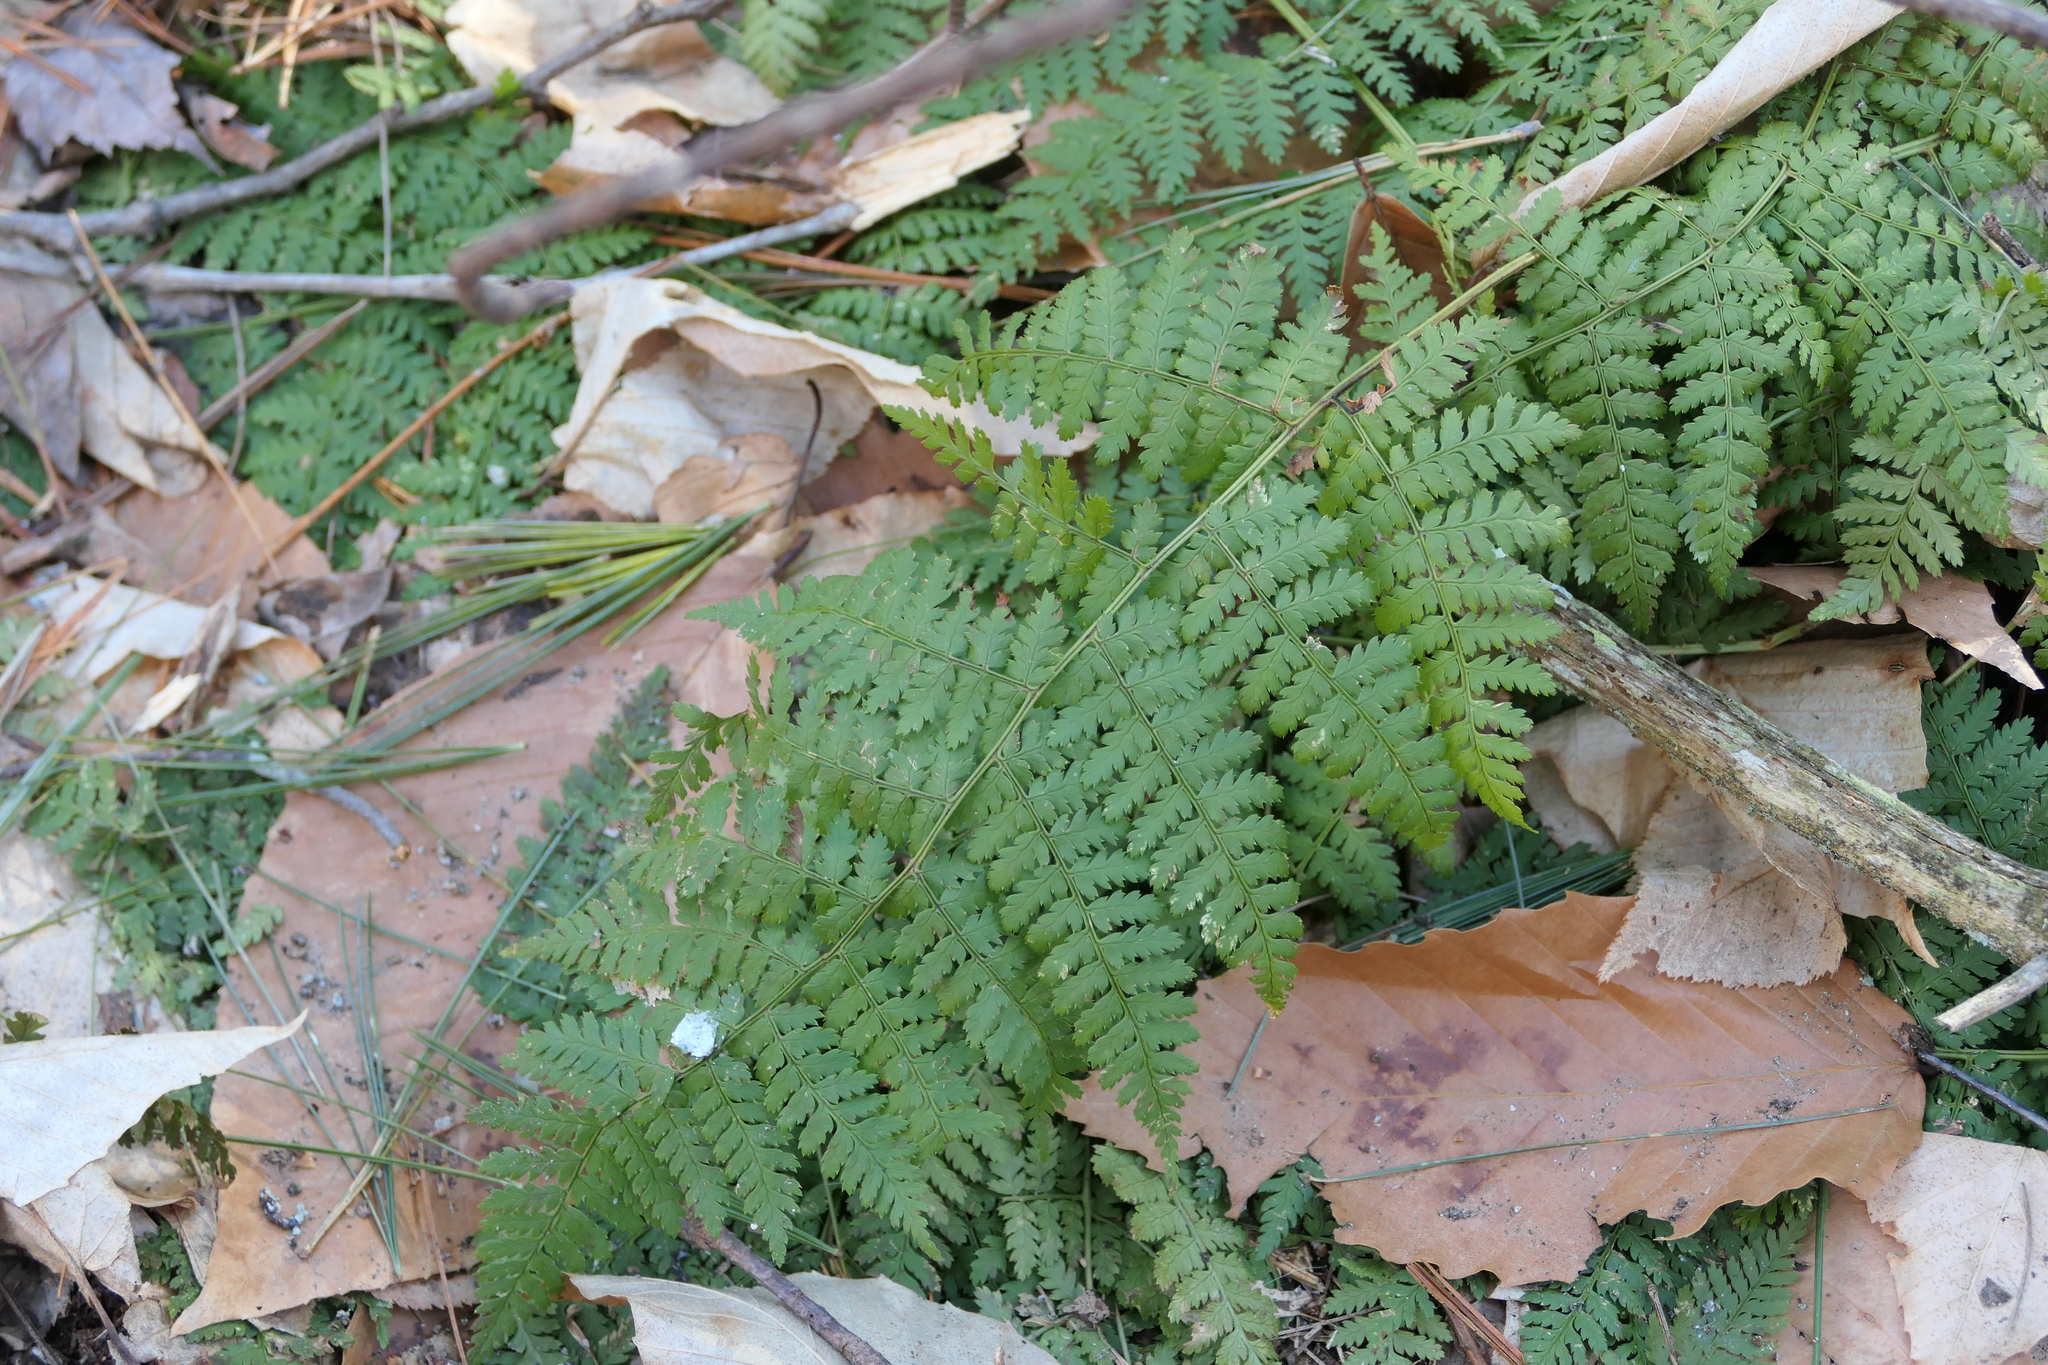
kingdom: Plantae
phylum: Tracheophyta
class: Polypodiopsida
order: Polypodiales
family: Dryopteridaceae
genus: Dryopteris
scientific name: Dryopteris intermedia
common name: Evergreen wood fern
